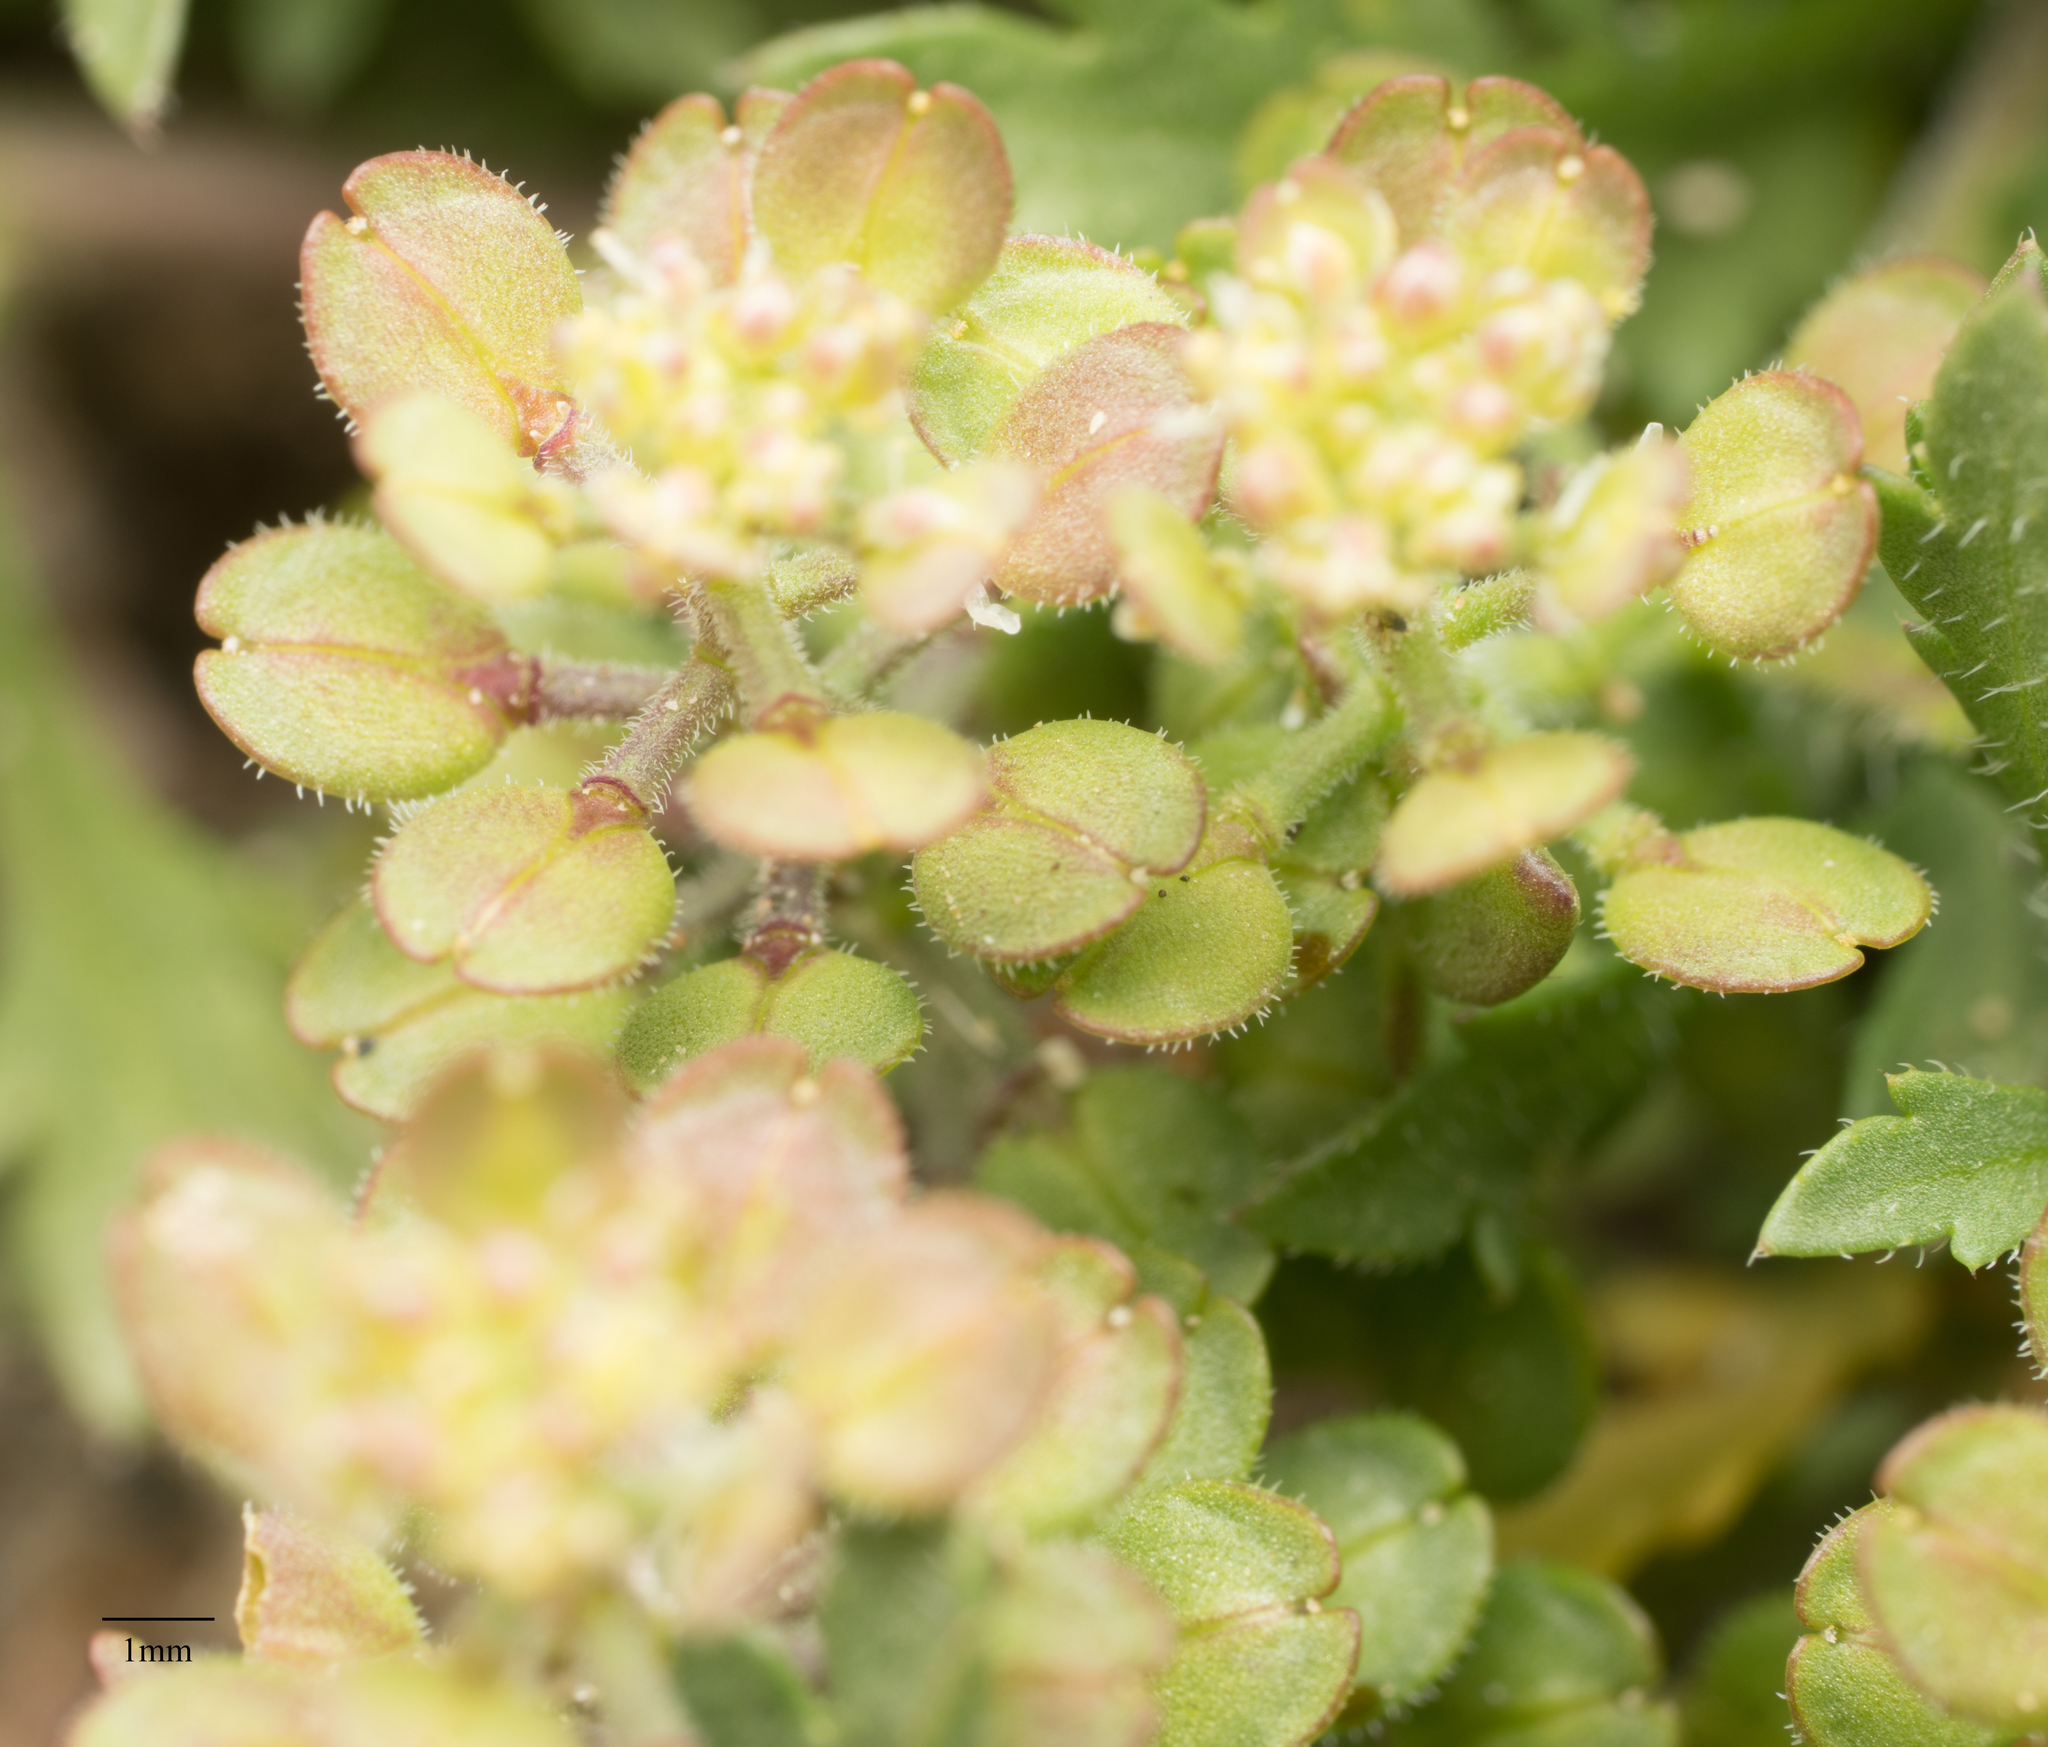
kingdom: Plantae
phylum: Tracheophyta
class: Magnoliopsida
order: Brassicales
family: Brassicaceae
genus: Lepidium
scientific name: Lepidium lasiocarpum
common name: Hairy-pod pepperwort
